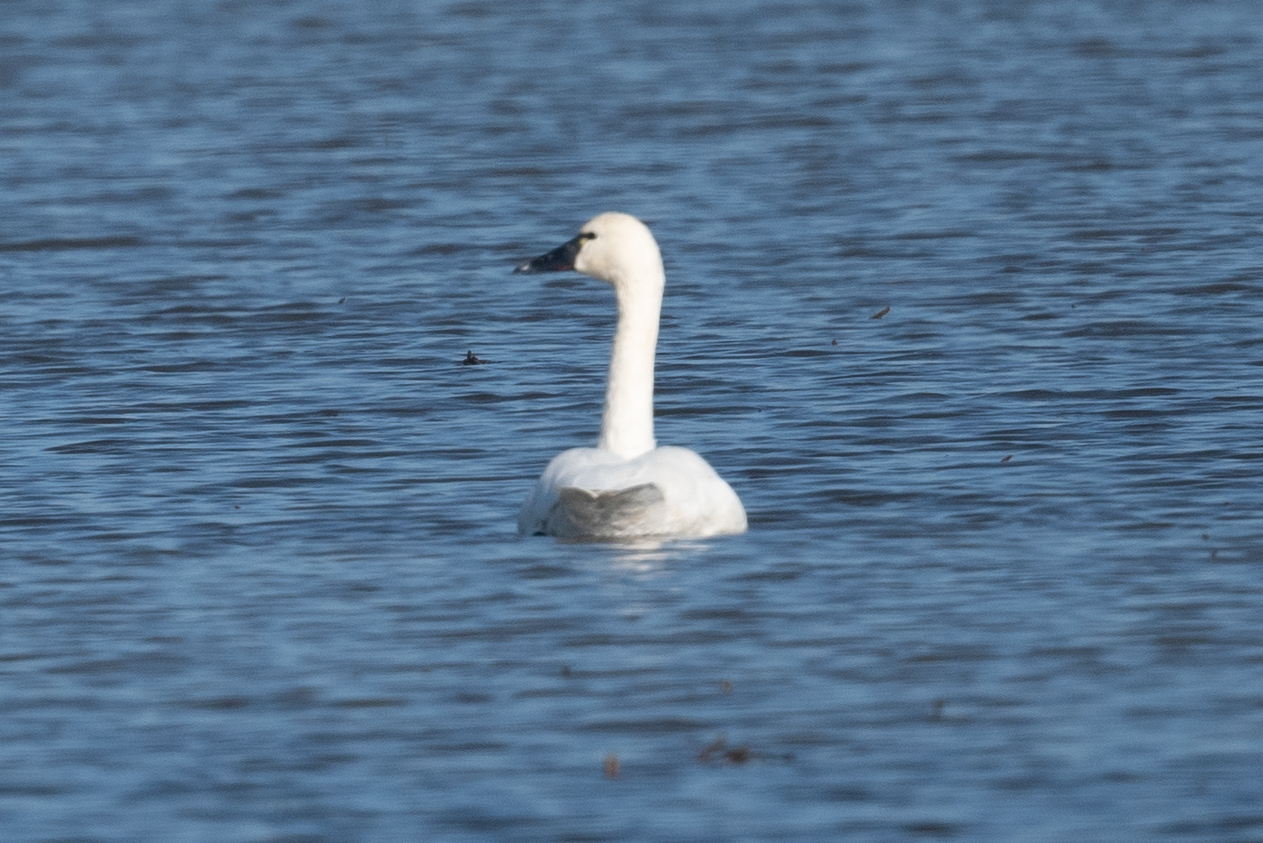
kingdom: Animalia
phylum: Chordata
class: Aves
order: Anseriformes
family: Anatidae
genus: Cygnus
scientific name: Cygnus columbianus
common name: Tundra swan
